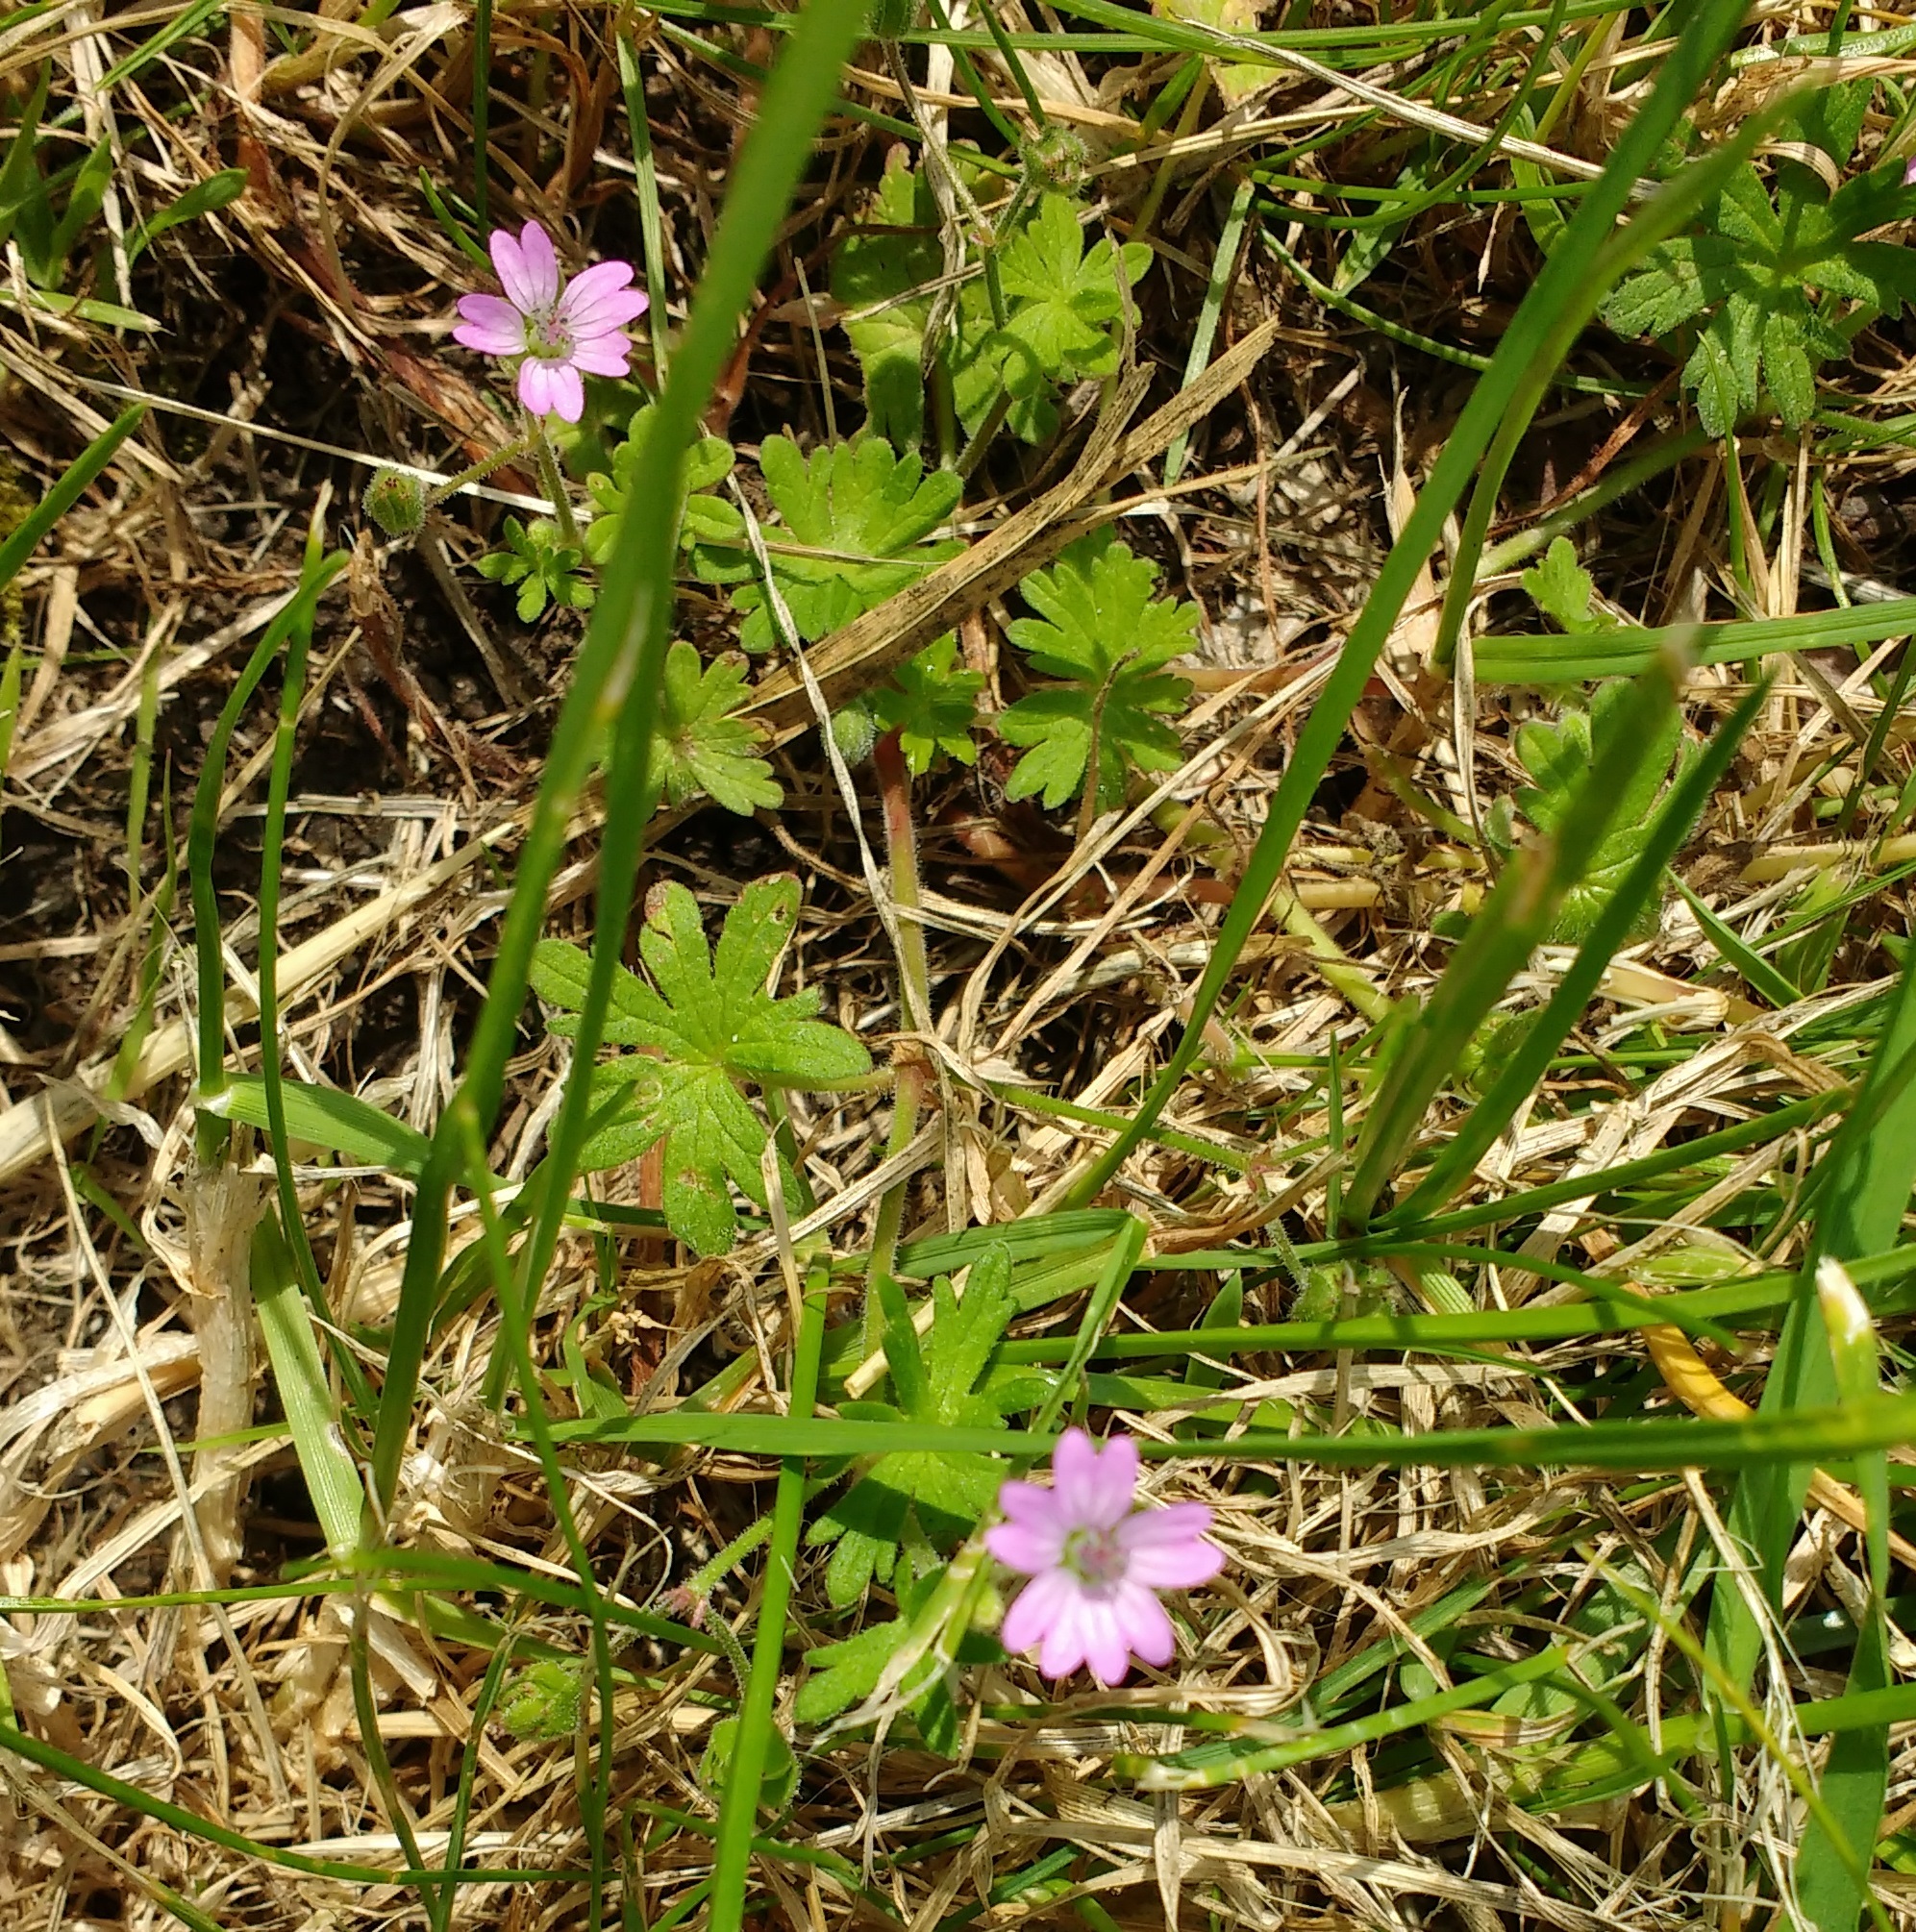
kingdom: Plantae
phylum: Tracheophyta
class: Magnoliopsida
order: Geraniales
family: Geraniaceae
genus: Geranium
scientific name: Geranium molle
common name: Dove's-foot crane's-bill
